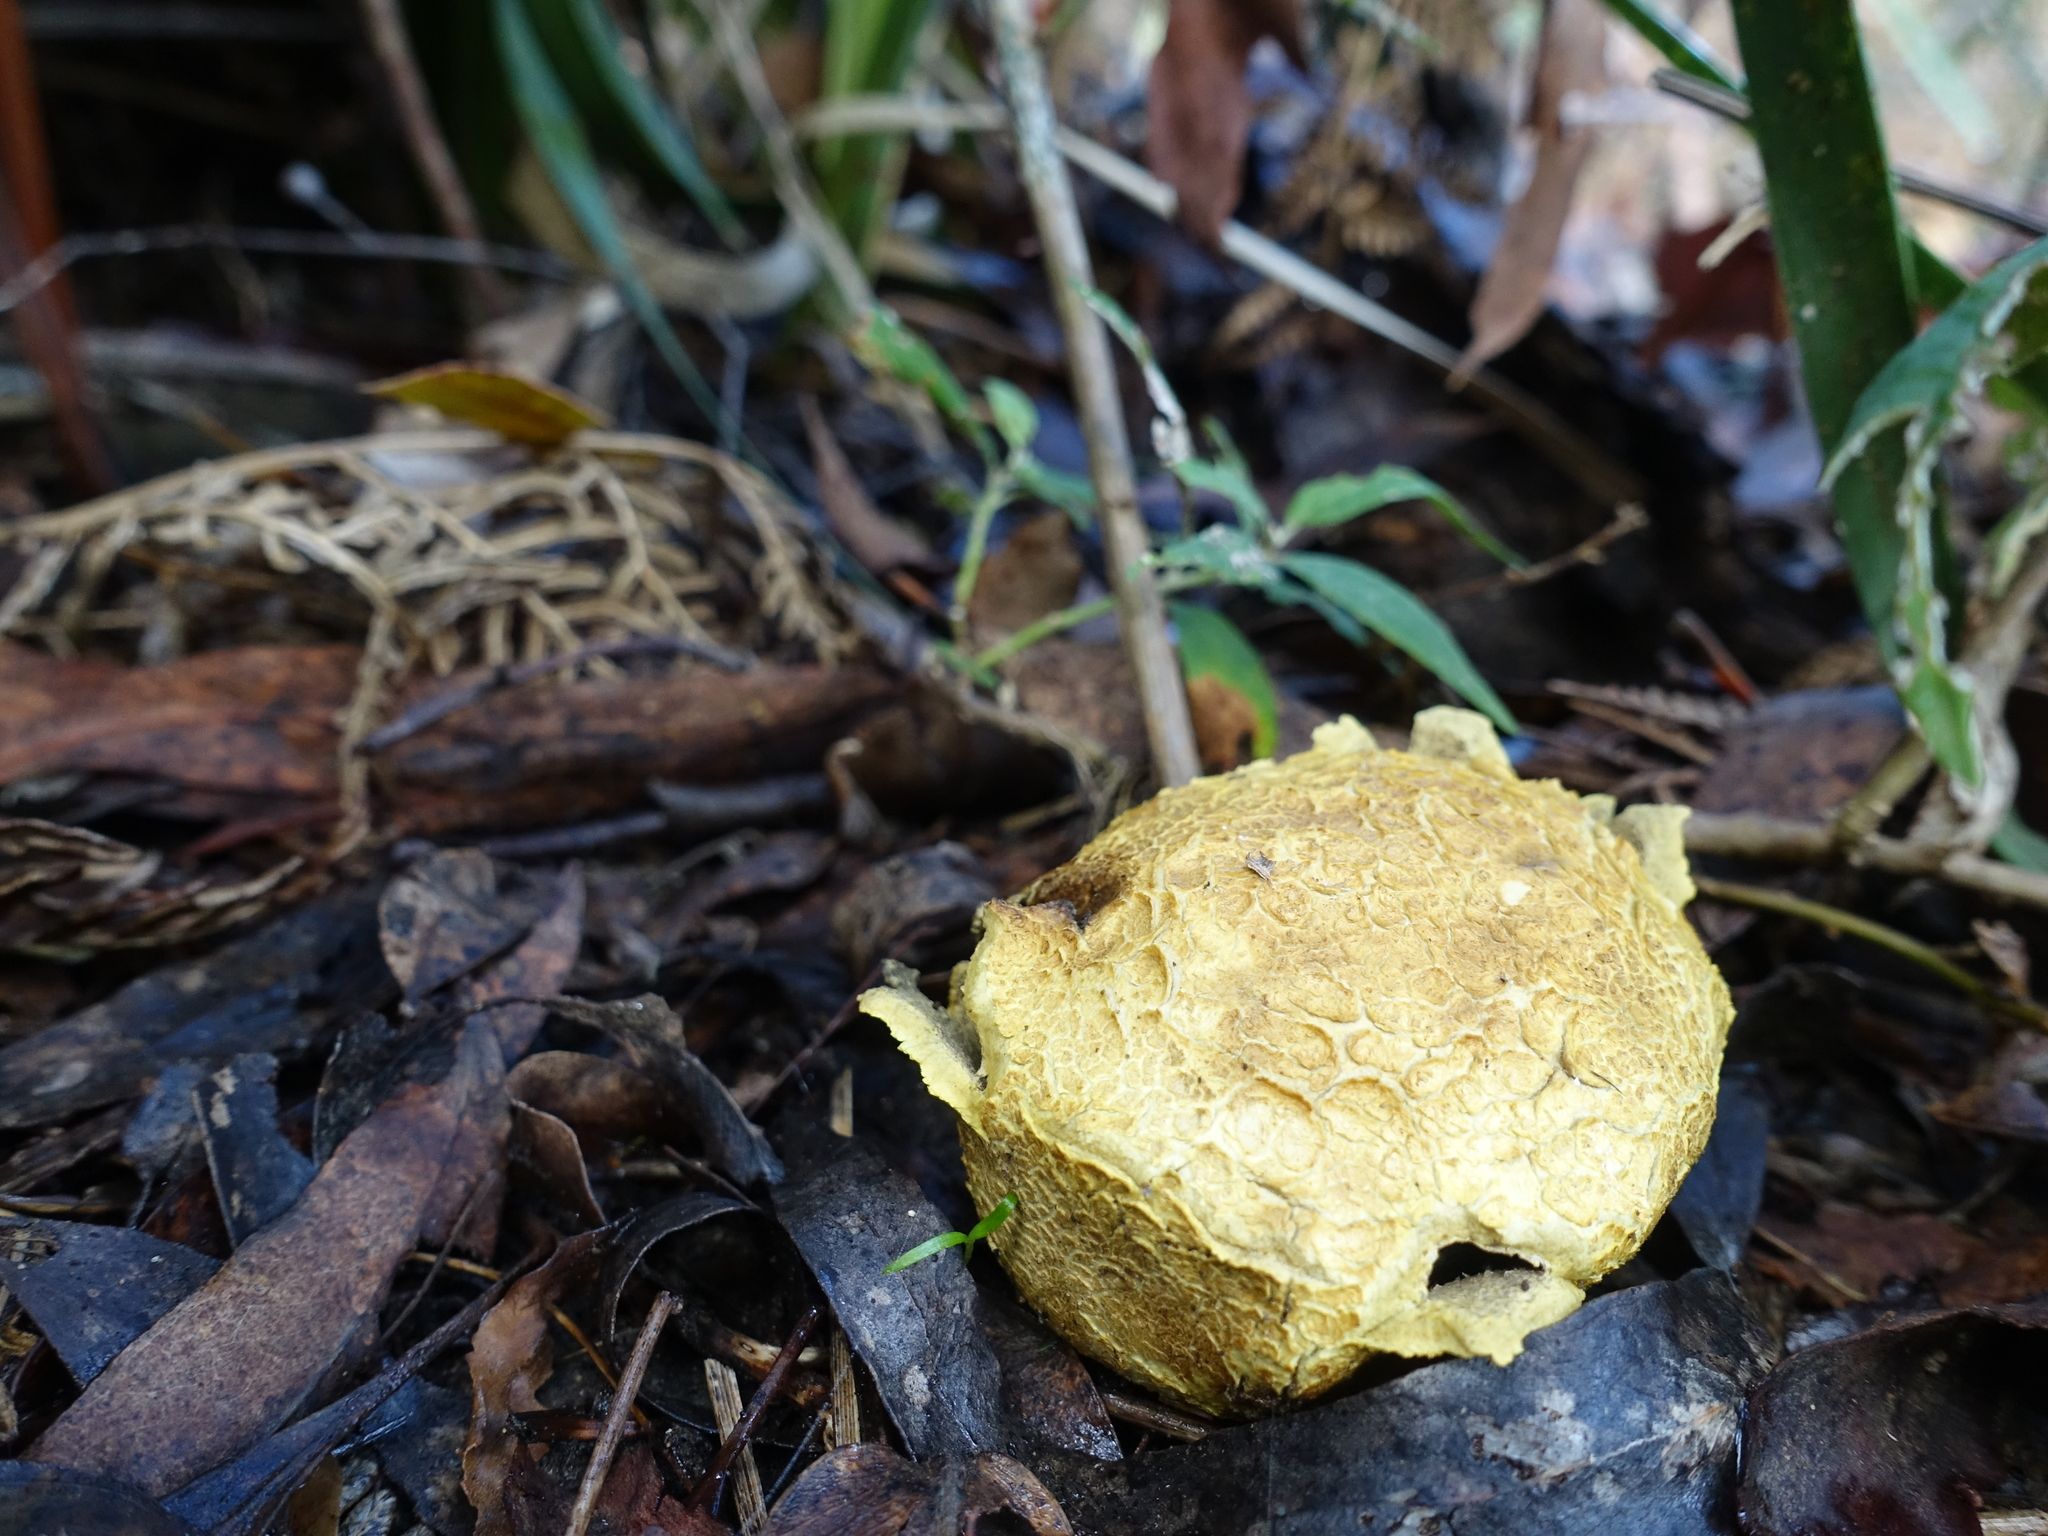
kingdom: Fungi
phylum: Basidiomycota
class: Agaricomycetes
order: Boletales
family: Sclerodermataceae
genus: Scleroderma
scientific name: Scleroderma cepa
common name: Onion earthball
